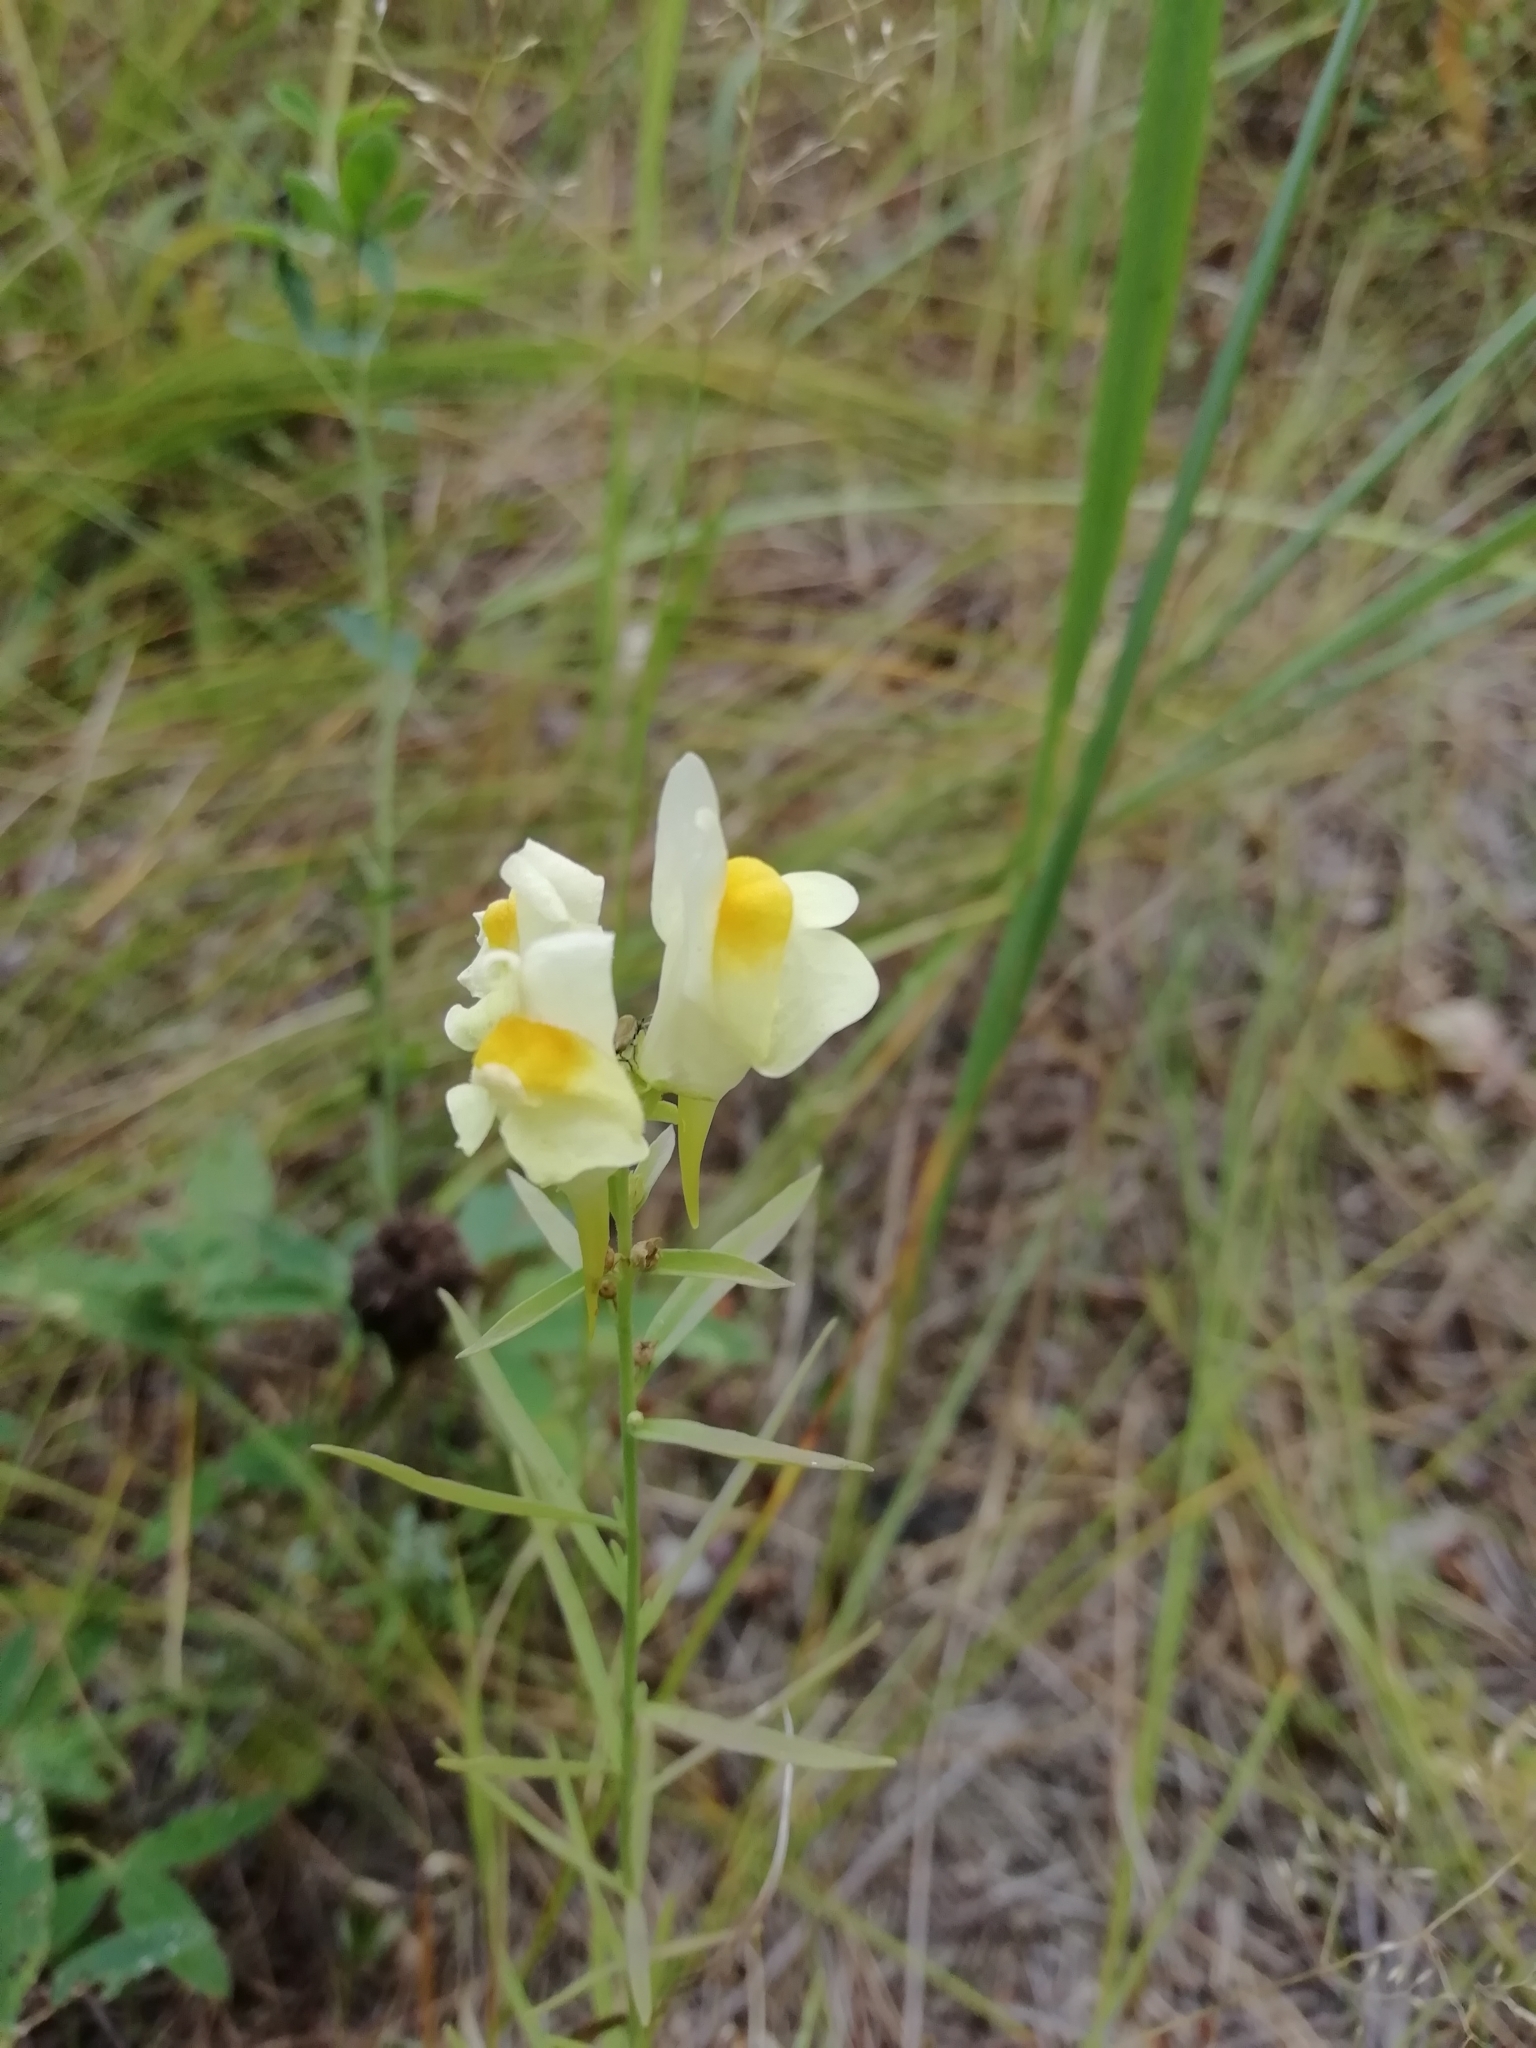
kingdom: Plantae
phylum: Tracheophyta
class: Magnoliopsida
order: Lamiales
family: Plantaginaceae
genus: Linaria
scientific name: Linaria vulgaris
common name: Butter and eggs
